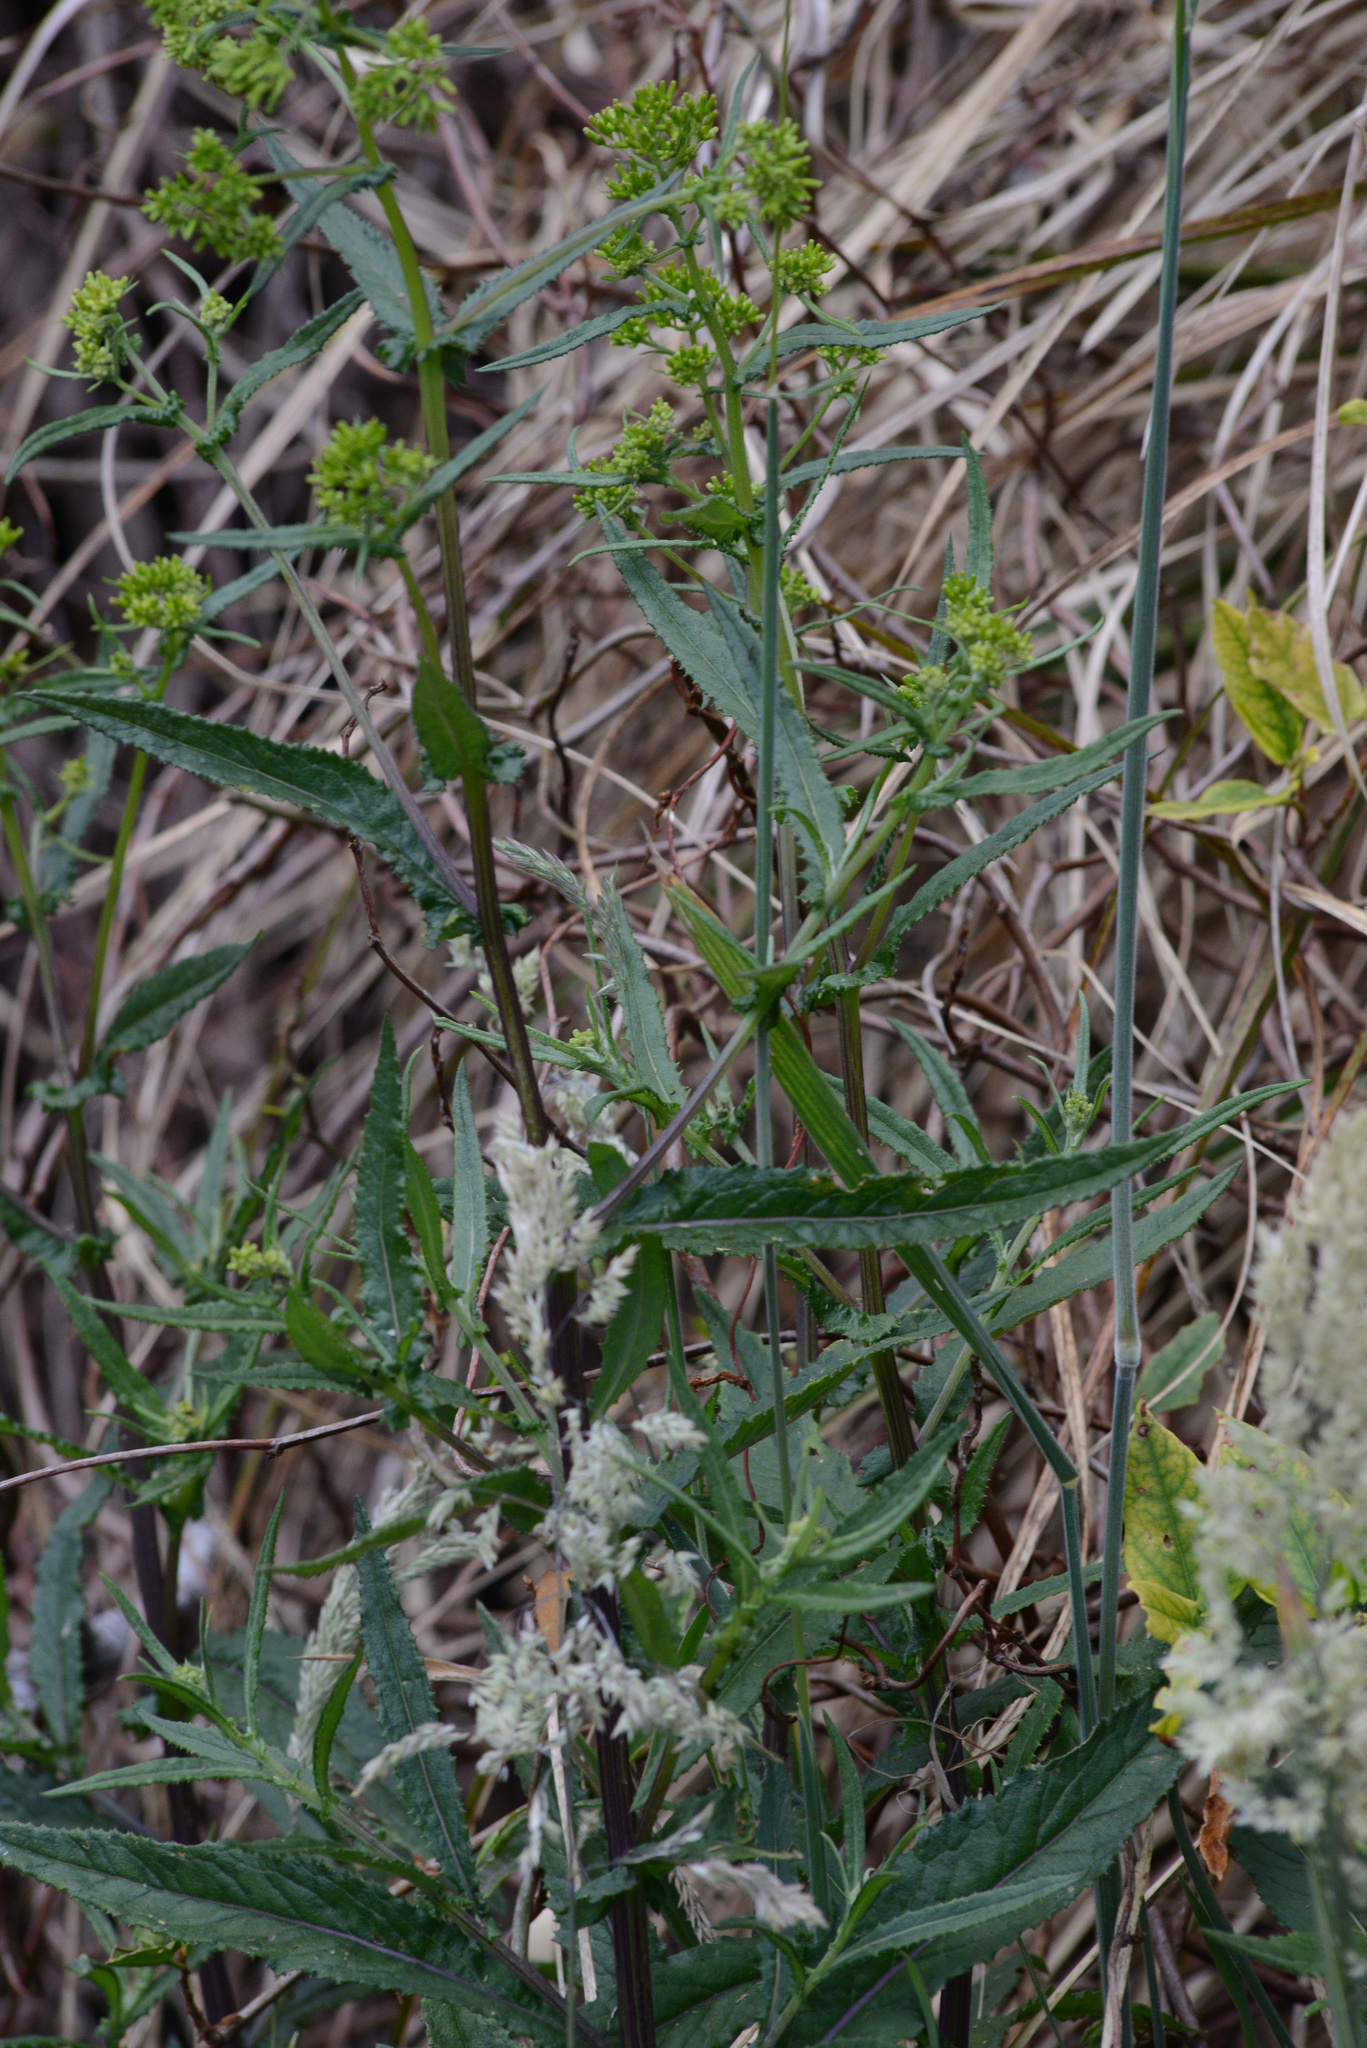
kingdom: Plantae
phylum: Tracheophyta
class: Magnoliopsida
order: Asterales
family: Asteraceae
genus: Senecio
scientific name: Senecio minimus
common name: Toothed fireweed
